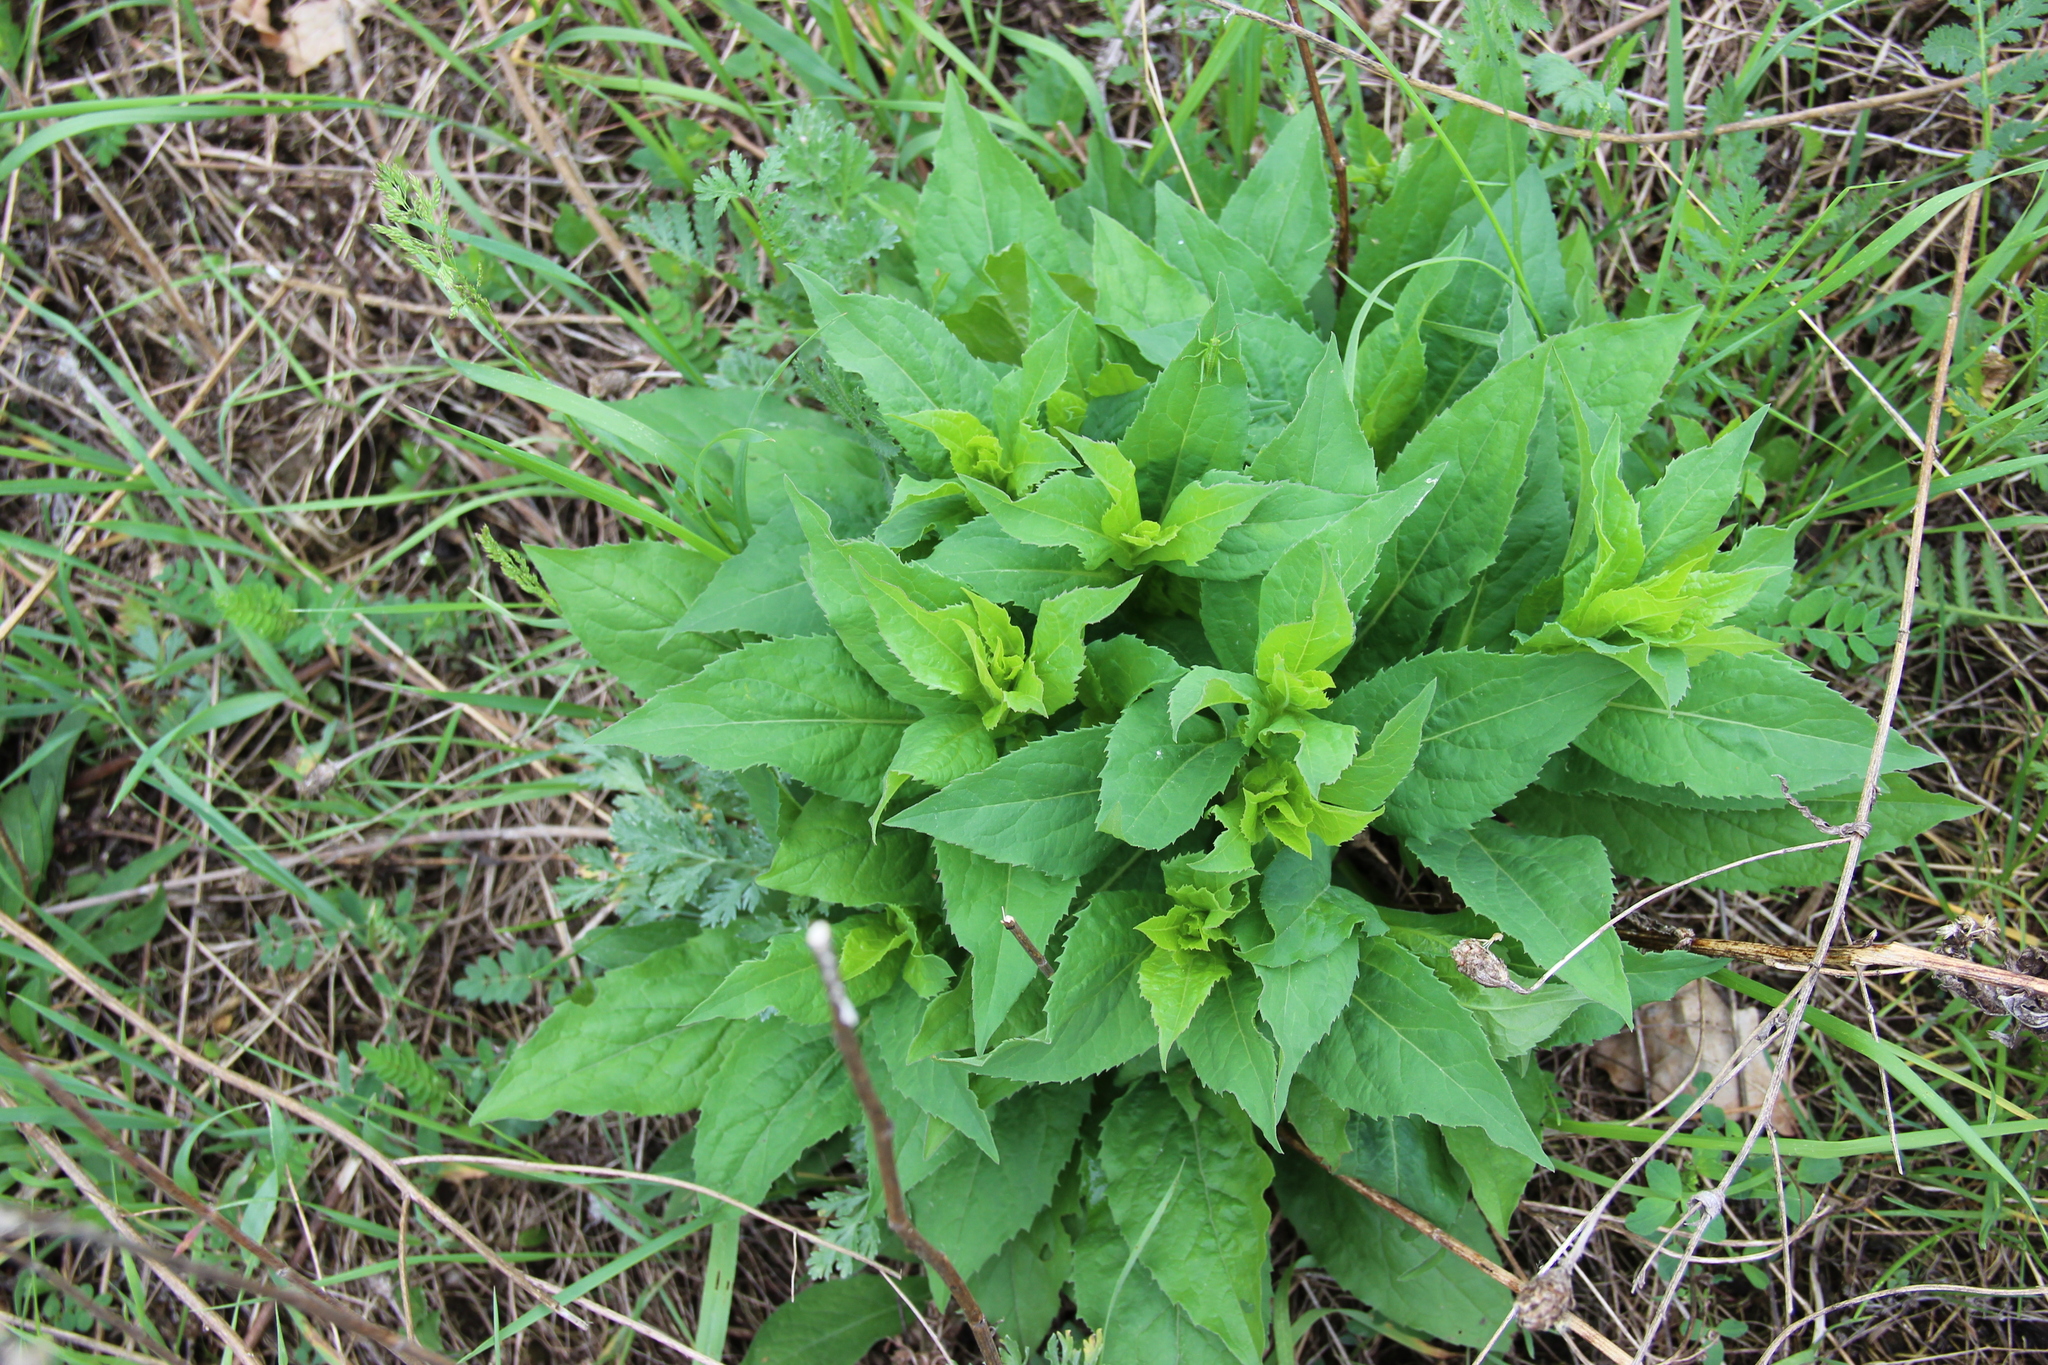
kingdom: Plantae
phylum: Tracheophyta
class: Magnoliopsida
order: Asterales
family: Campanulaceae
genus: Campanula
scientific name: Campanula rapunculoides
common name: Creeping bellflower
